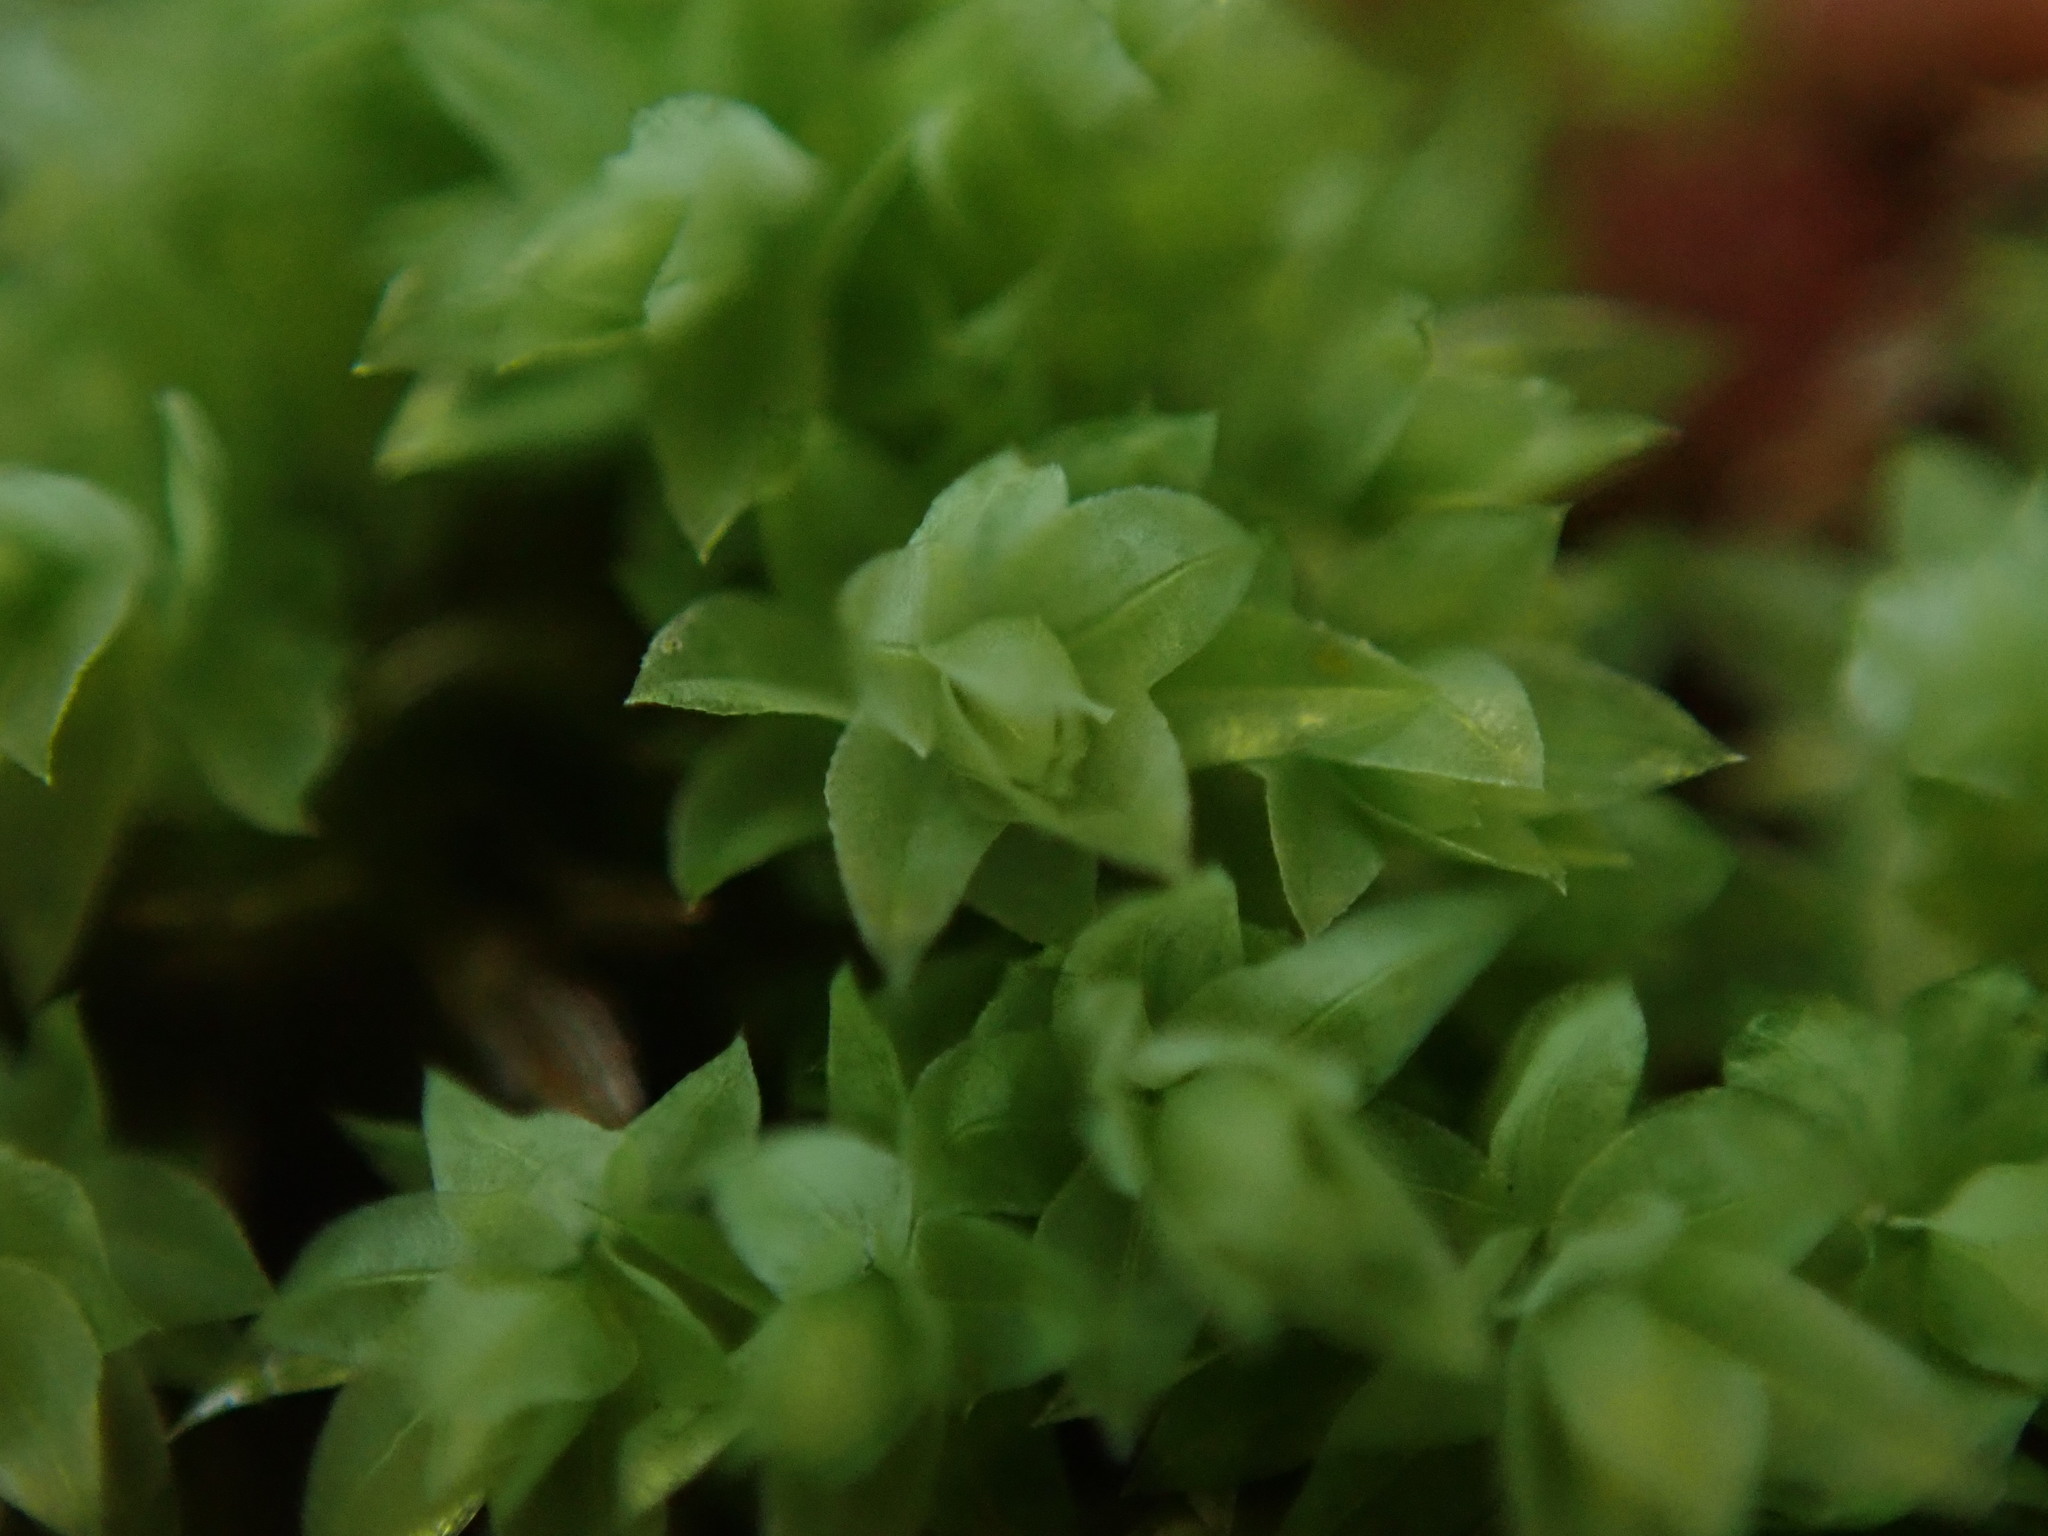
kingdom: Plantae
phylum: Bryophyta
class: Bryopsida
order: Bryales
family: Mniaceae
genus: Pohlia
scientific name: Pohlia cruda
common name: Opal nodding moss
